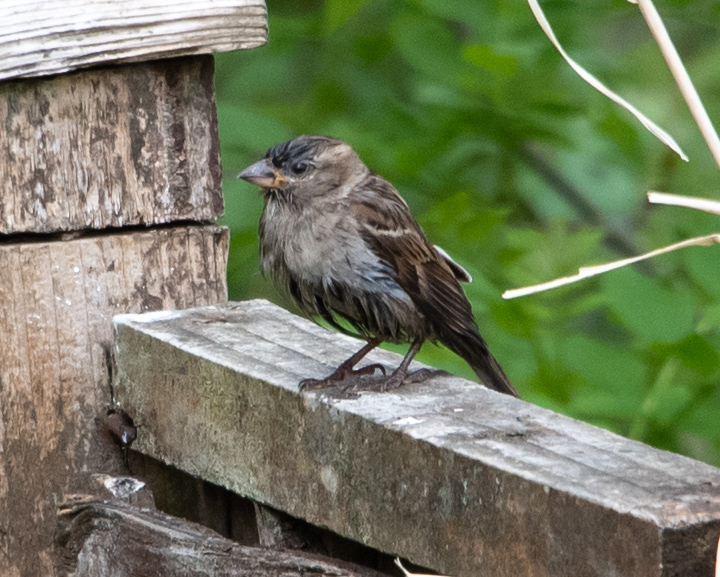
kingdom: Animalia
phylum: Chordata
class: Aves
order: Passeriformes
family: Passeridae
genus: Passer
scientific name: Passer domesticus
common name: House sparrow
